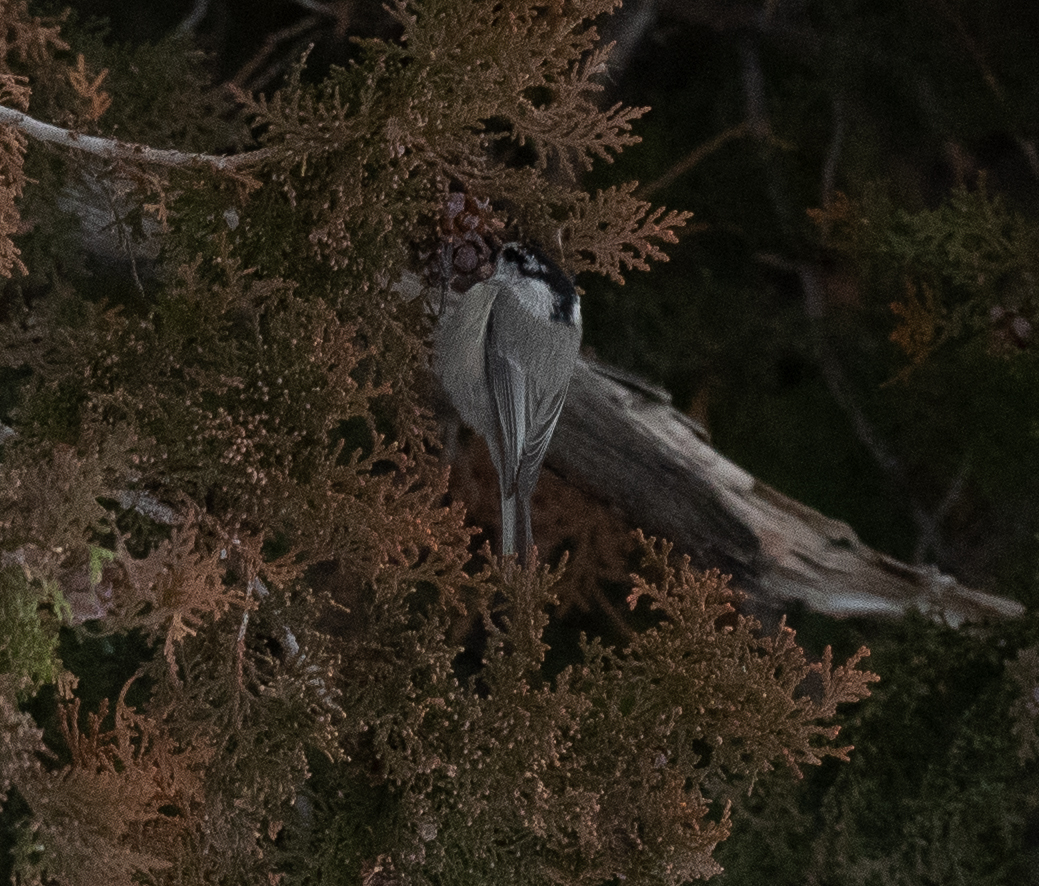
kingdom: Animalia
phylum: Chordata
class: Aves
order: Passeriformes
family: Paridae
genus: Poecile
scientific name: Poecile gambeli
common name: Mountain chickadee
